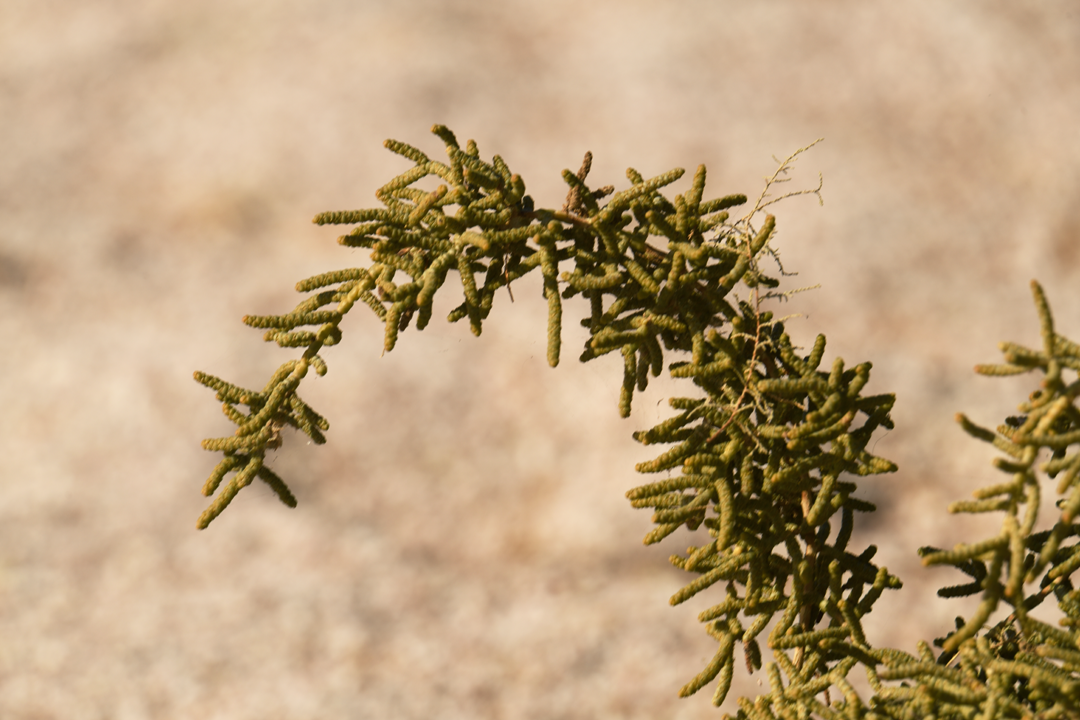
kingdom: Plantae
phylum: Tracheophyta
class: Magnoliopsida
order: Caryophyllales
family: Amaranthaceae
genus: Allenrolfea
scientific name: Allenrolfea occidentalis
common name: Iodine-bush
